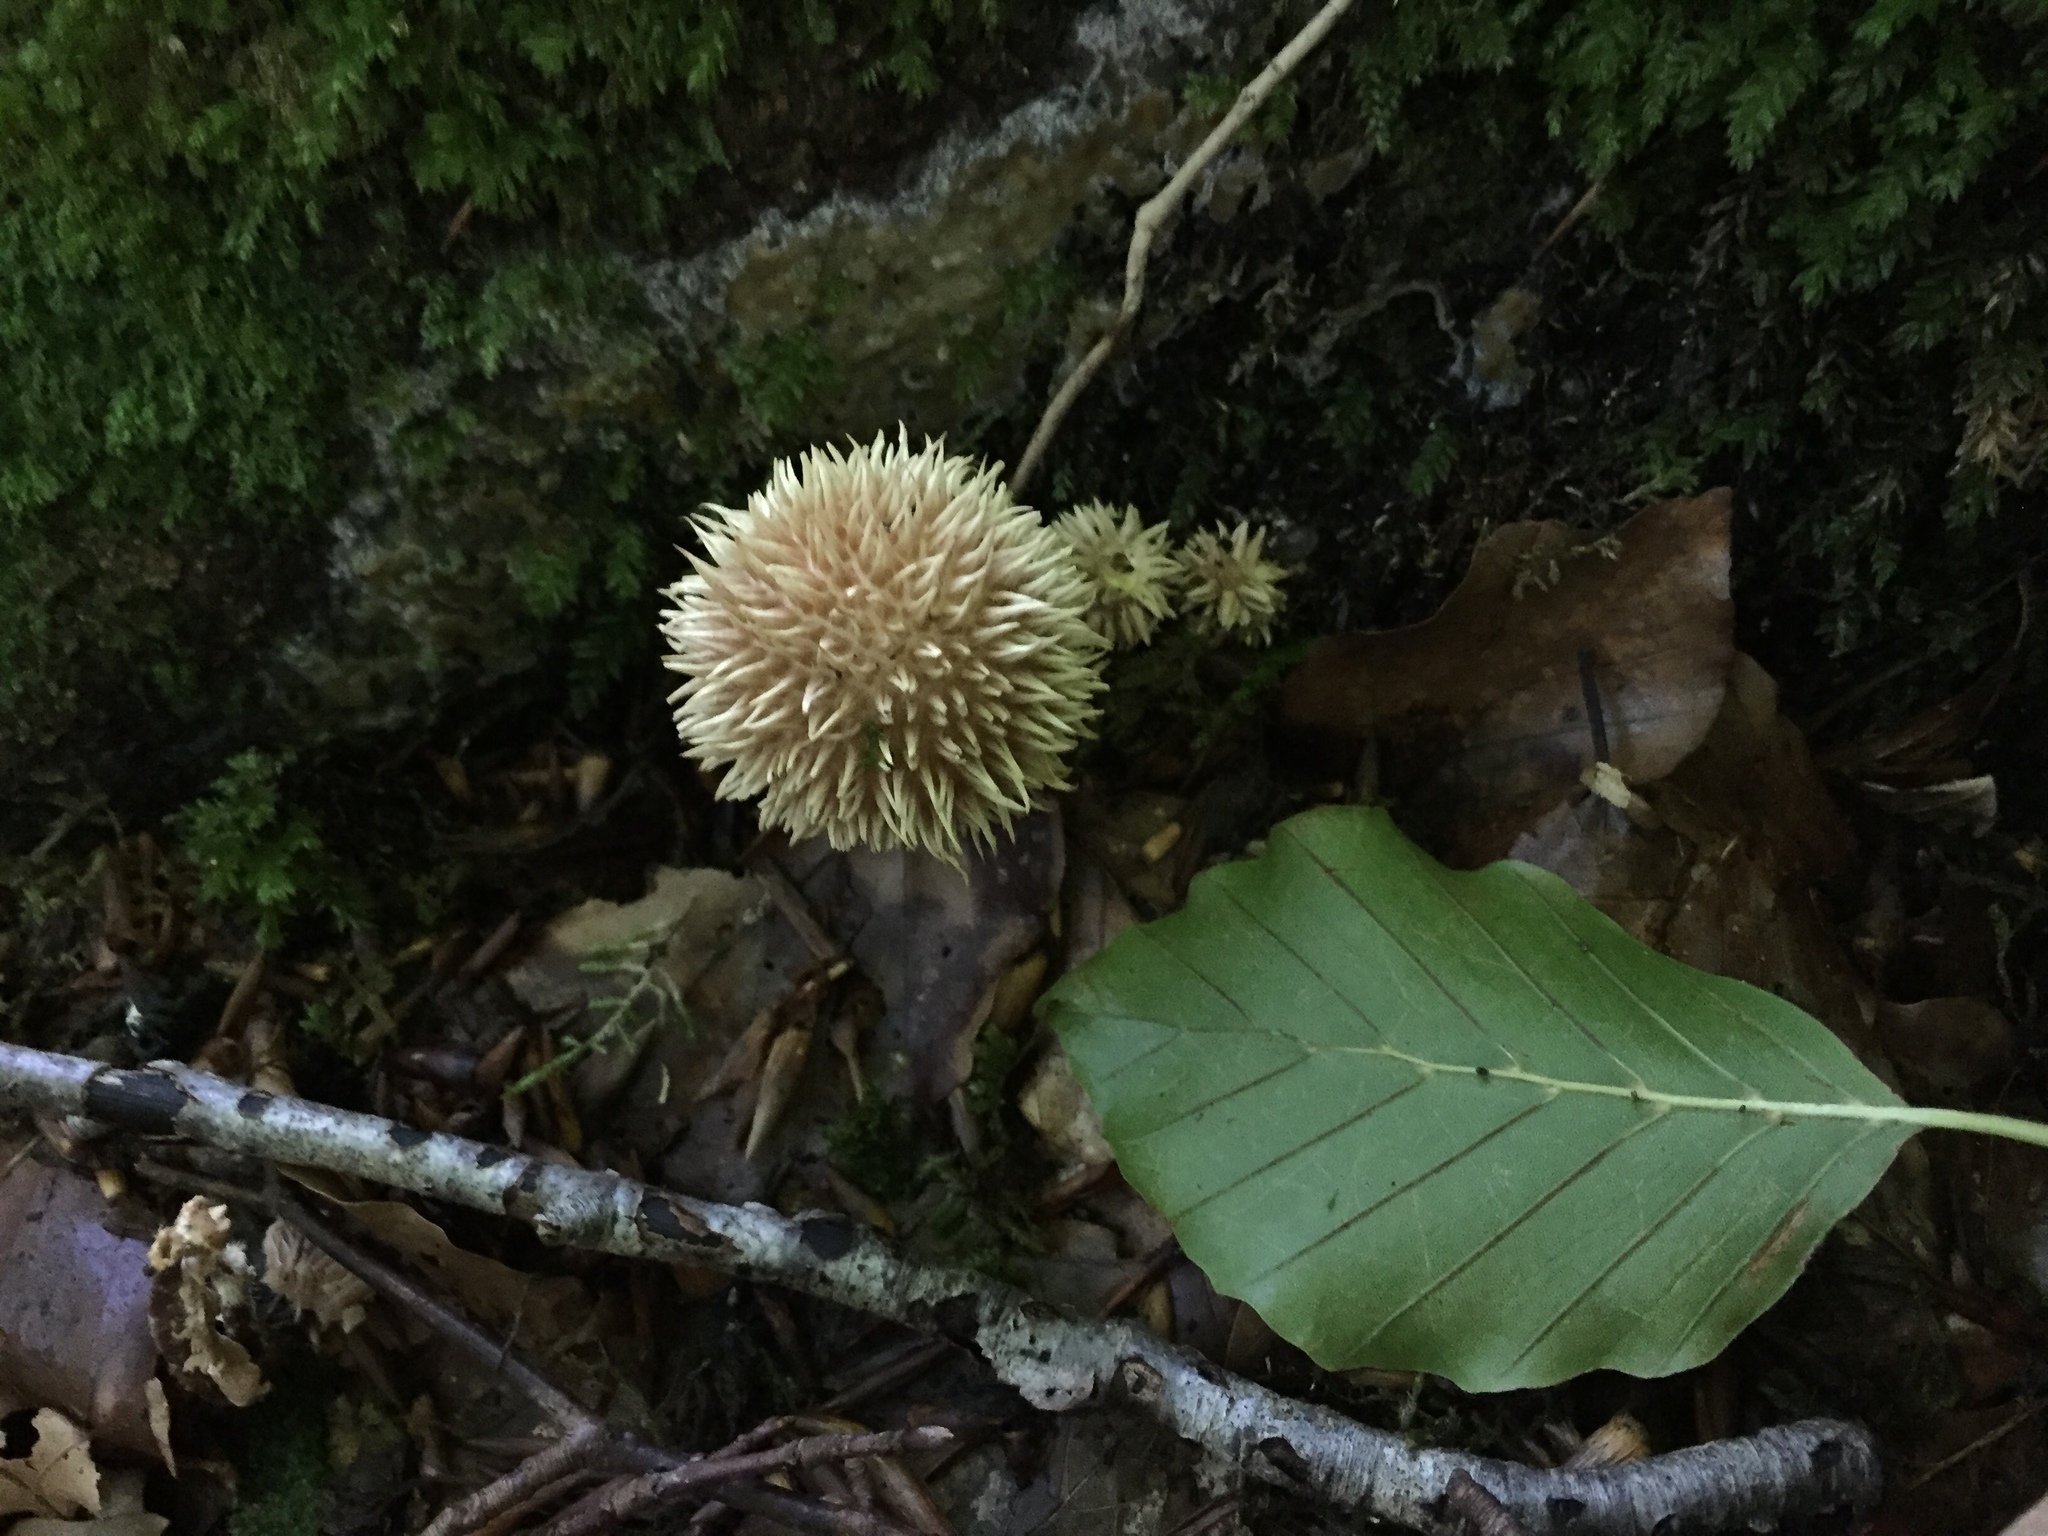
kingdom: Fungi
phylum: Basidiomycota
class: Agaricomycetes
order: Agaricales
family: Lycoperdaceae
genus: Lycoperdon
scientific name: Lycoperdon echinatum
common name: Hedgehog puffball
